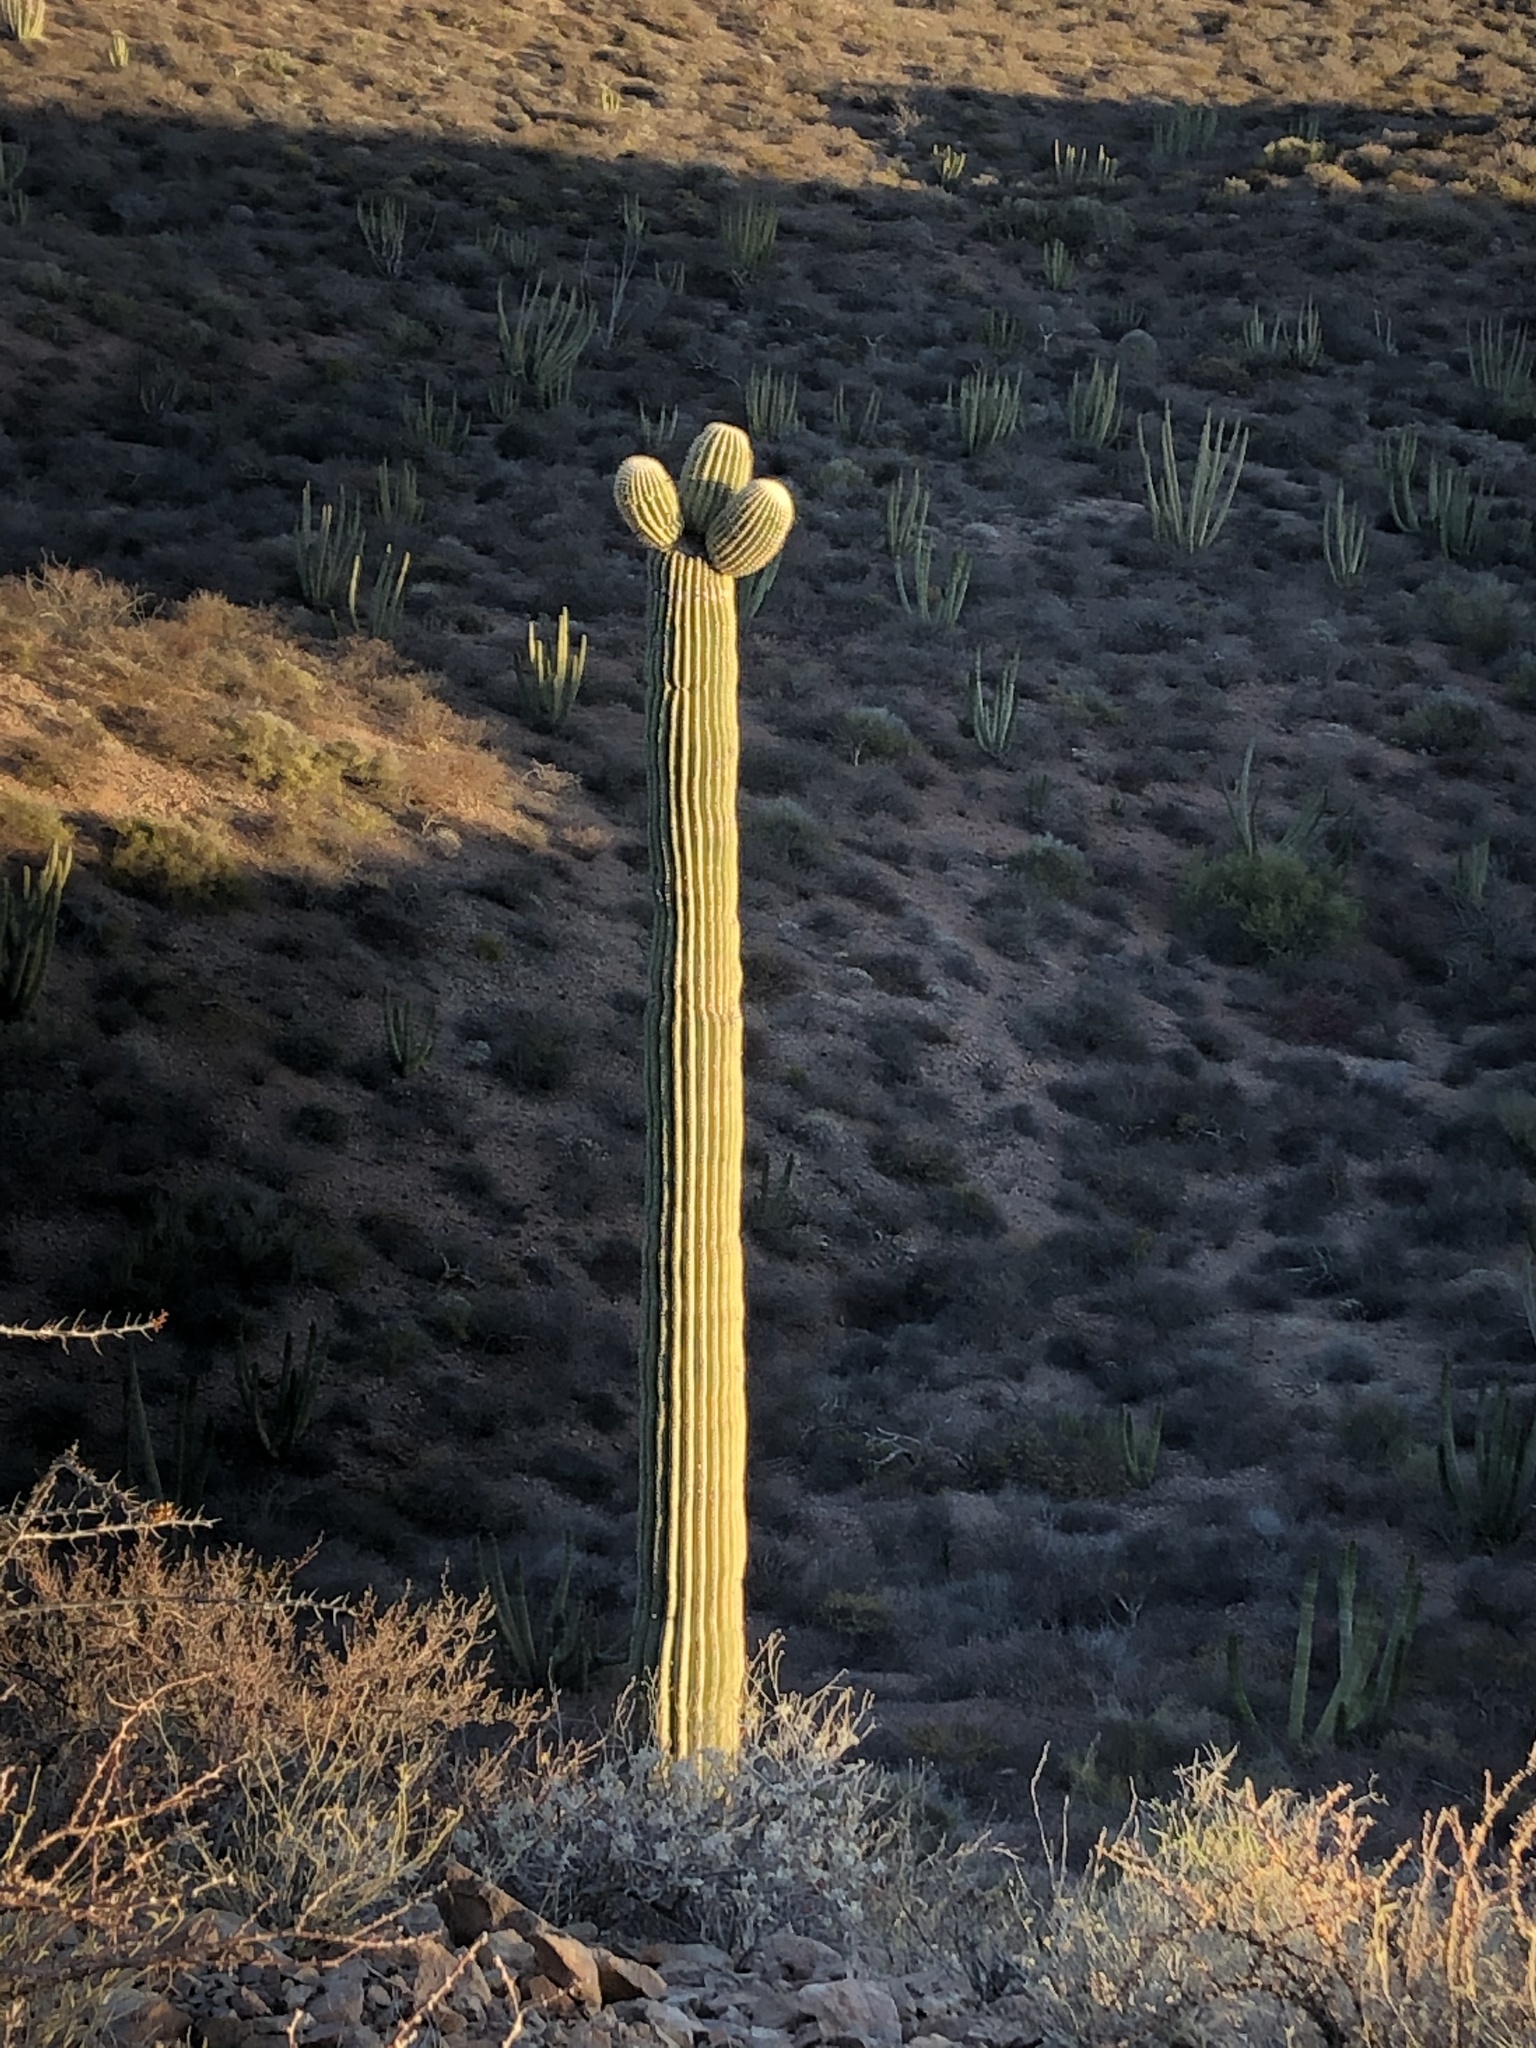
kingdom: Plantae
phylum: Tracheophyta
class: Magnoliopsida
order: Caryophyllales
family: Cactaceae
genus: Carnegiea
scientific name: Carnegiea gigantea
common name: Saguaro
